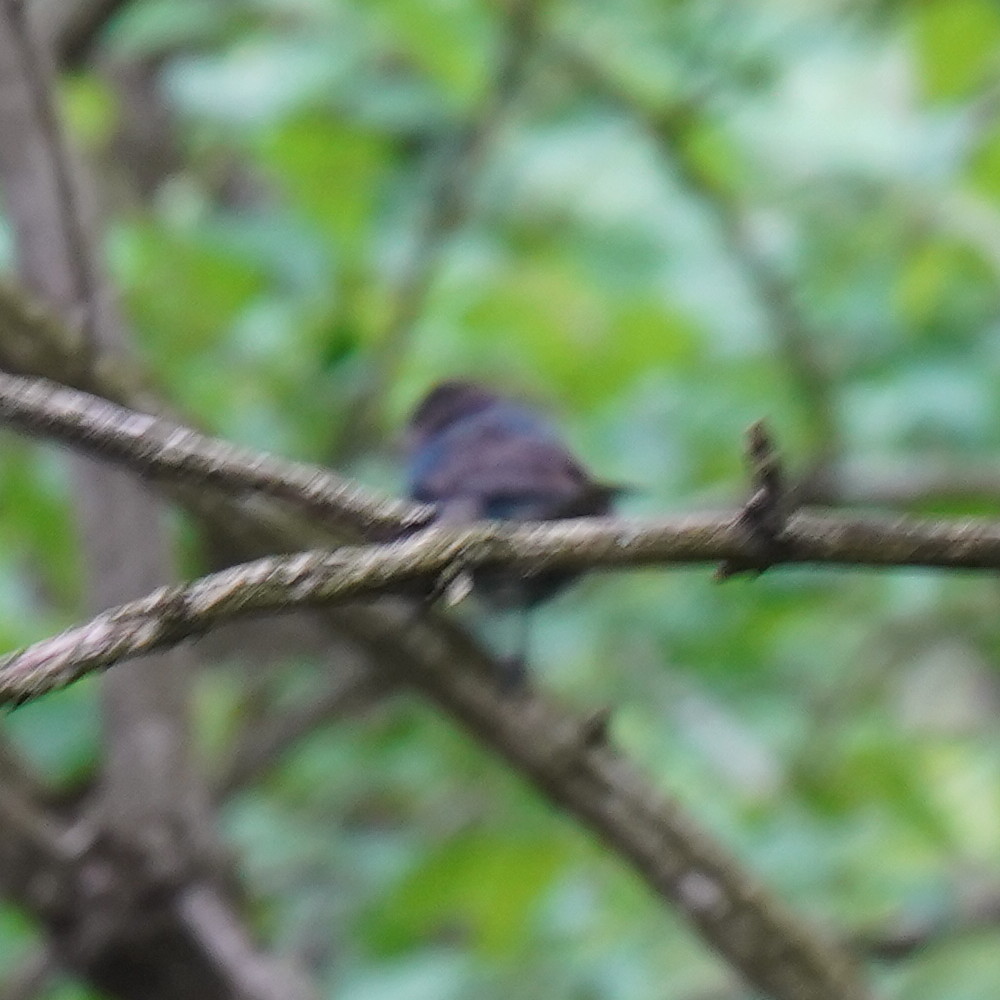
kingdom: Animalia
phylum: Chordata
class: Aves
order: Passeriformes
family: Cardinalidae
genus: Passerina
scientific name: Passerina cyanea
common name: Indigo bunting
